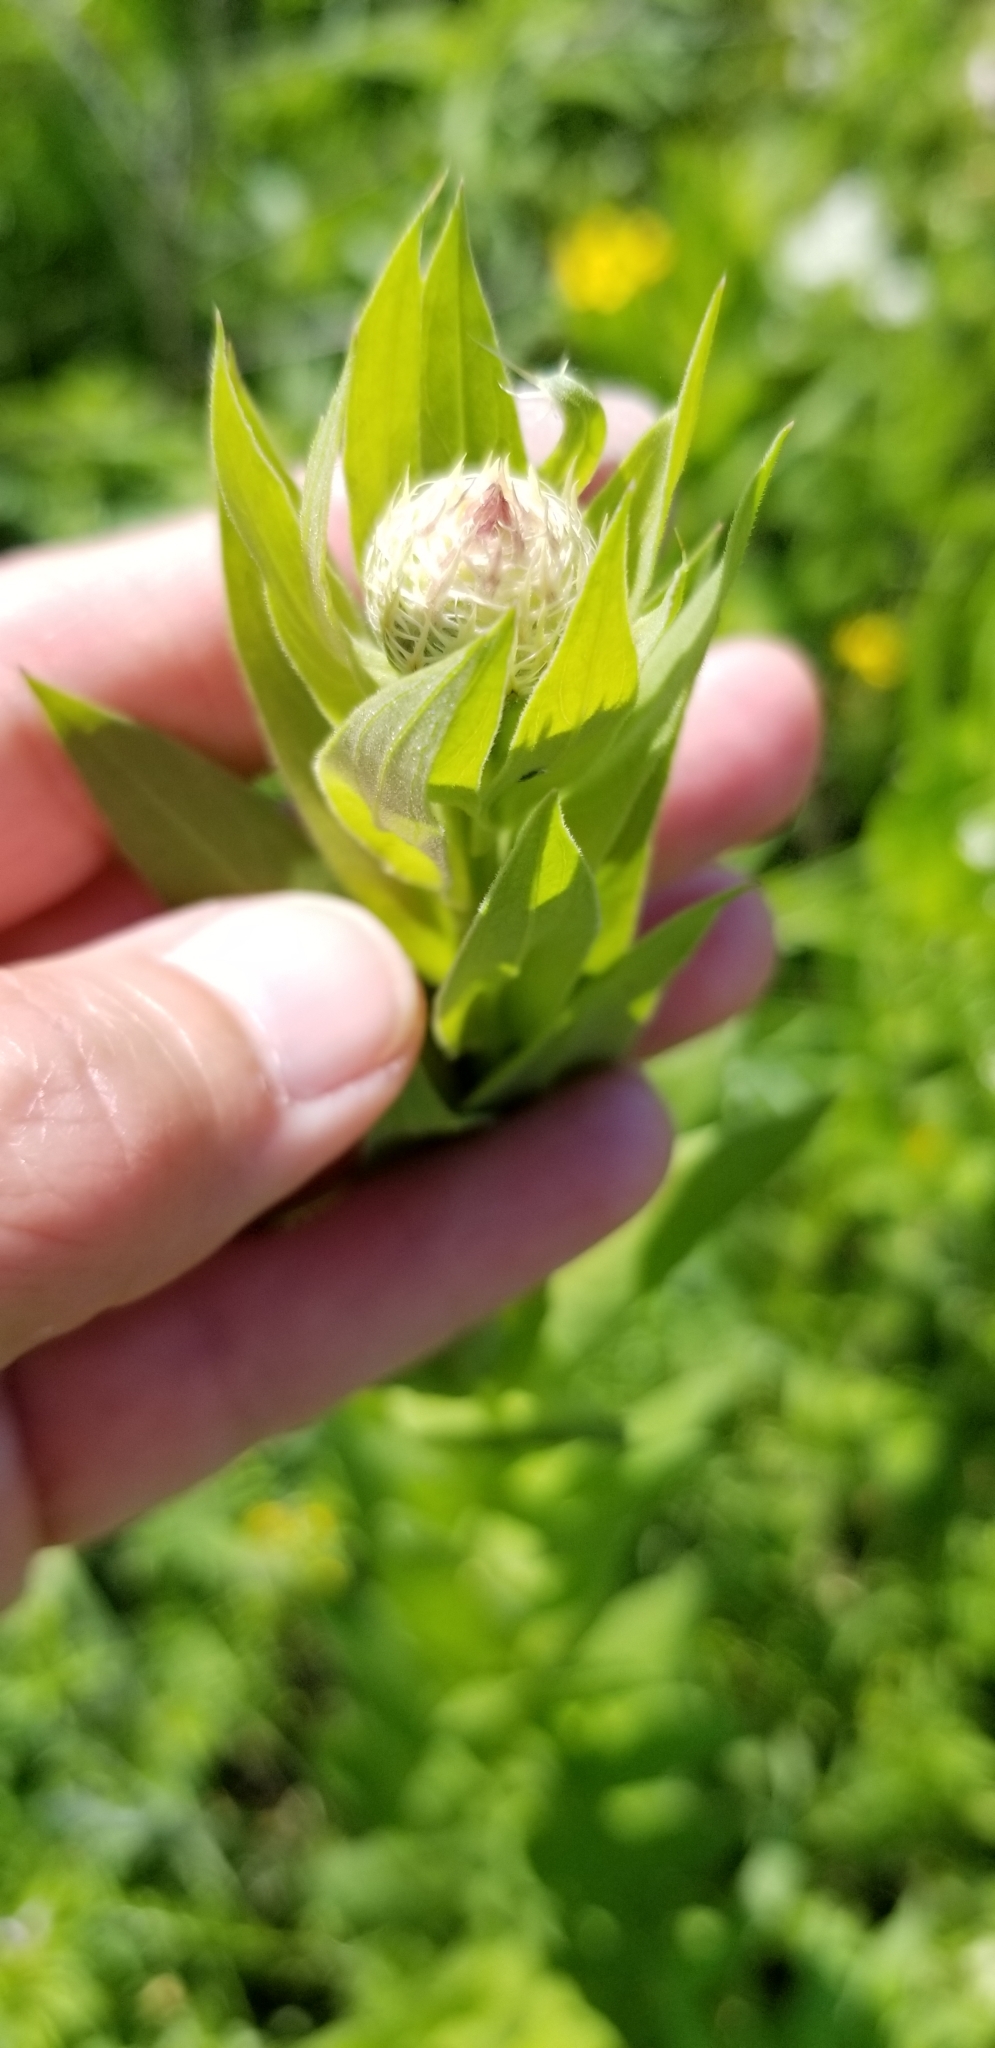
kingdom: Plantae
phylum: Tracheophyta
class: Magnoliopsida
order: Asterales
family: Asteraceae
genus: Plectocephalus
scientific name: Plectocephalus americanus
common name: American basket-flower
